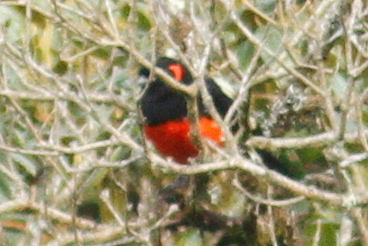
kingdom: Animalia
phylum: Chordata
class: Aves
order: Passeriformes
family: Thraupidae
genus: Anisognathus
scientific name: Anisognathus igniventris
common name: Scarlet-bellied mountain tanager
